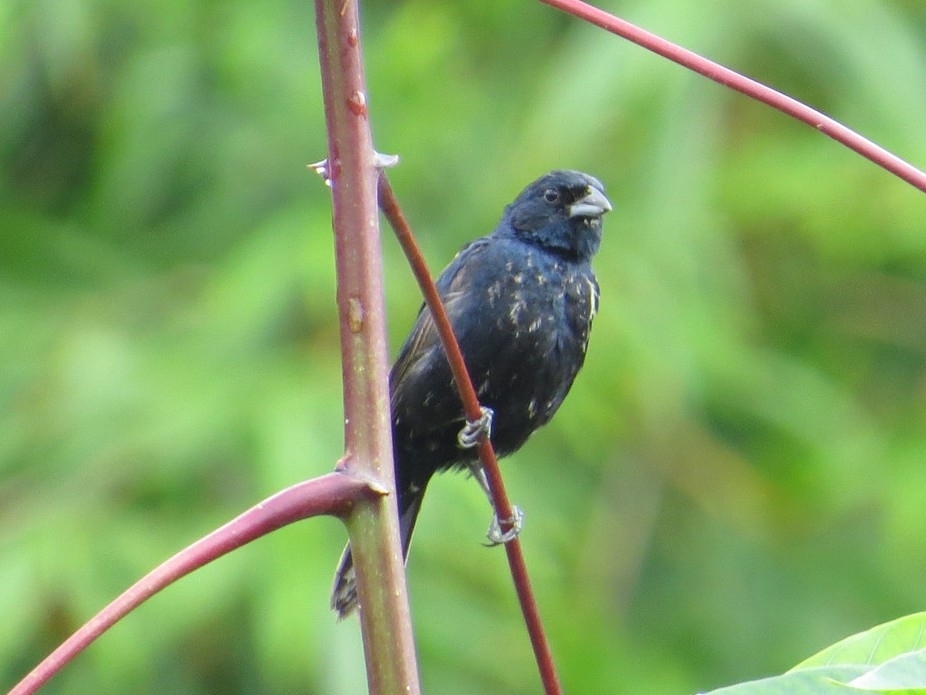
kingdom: Animalia
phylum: Chordata
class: Aves
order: Passeriformes
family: Thraupidae
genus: Volatinia
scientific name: Volatinia jacarina
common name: Blue-black grassquit
